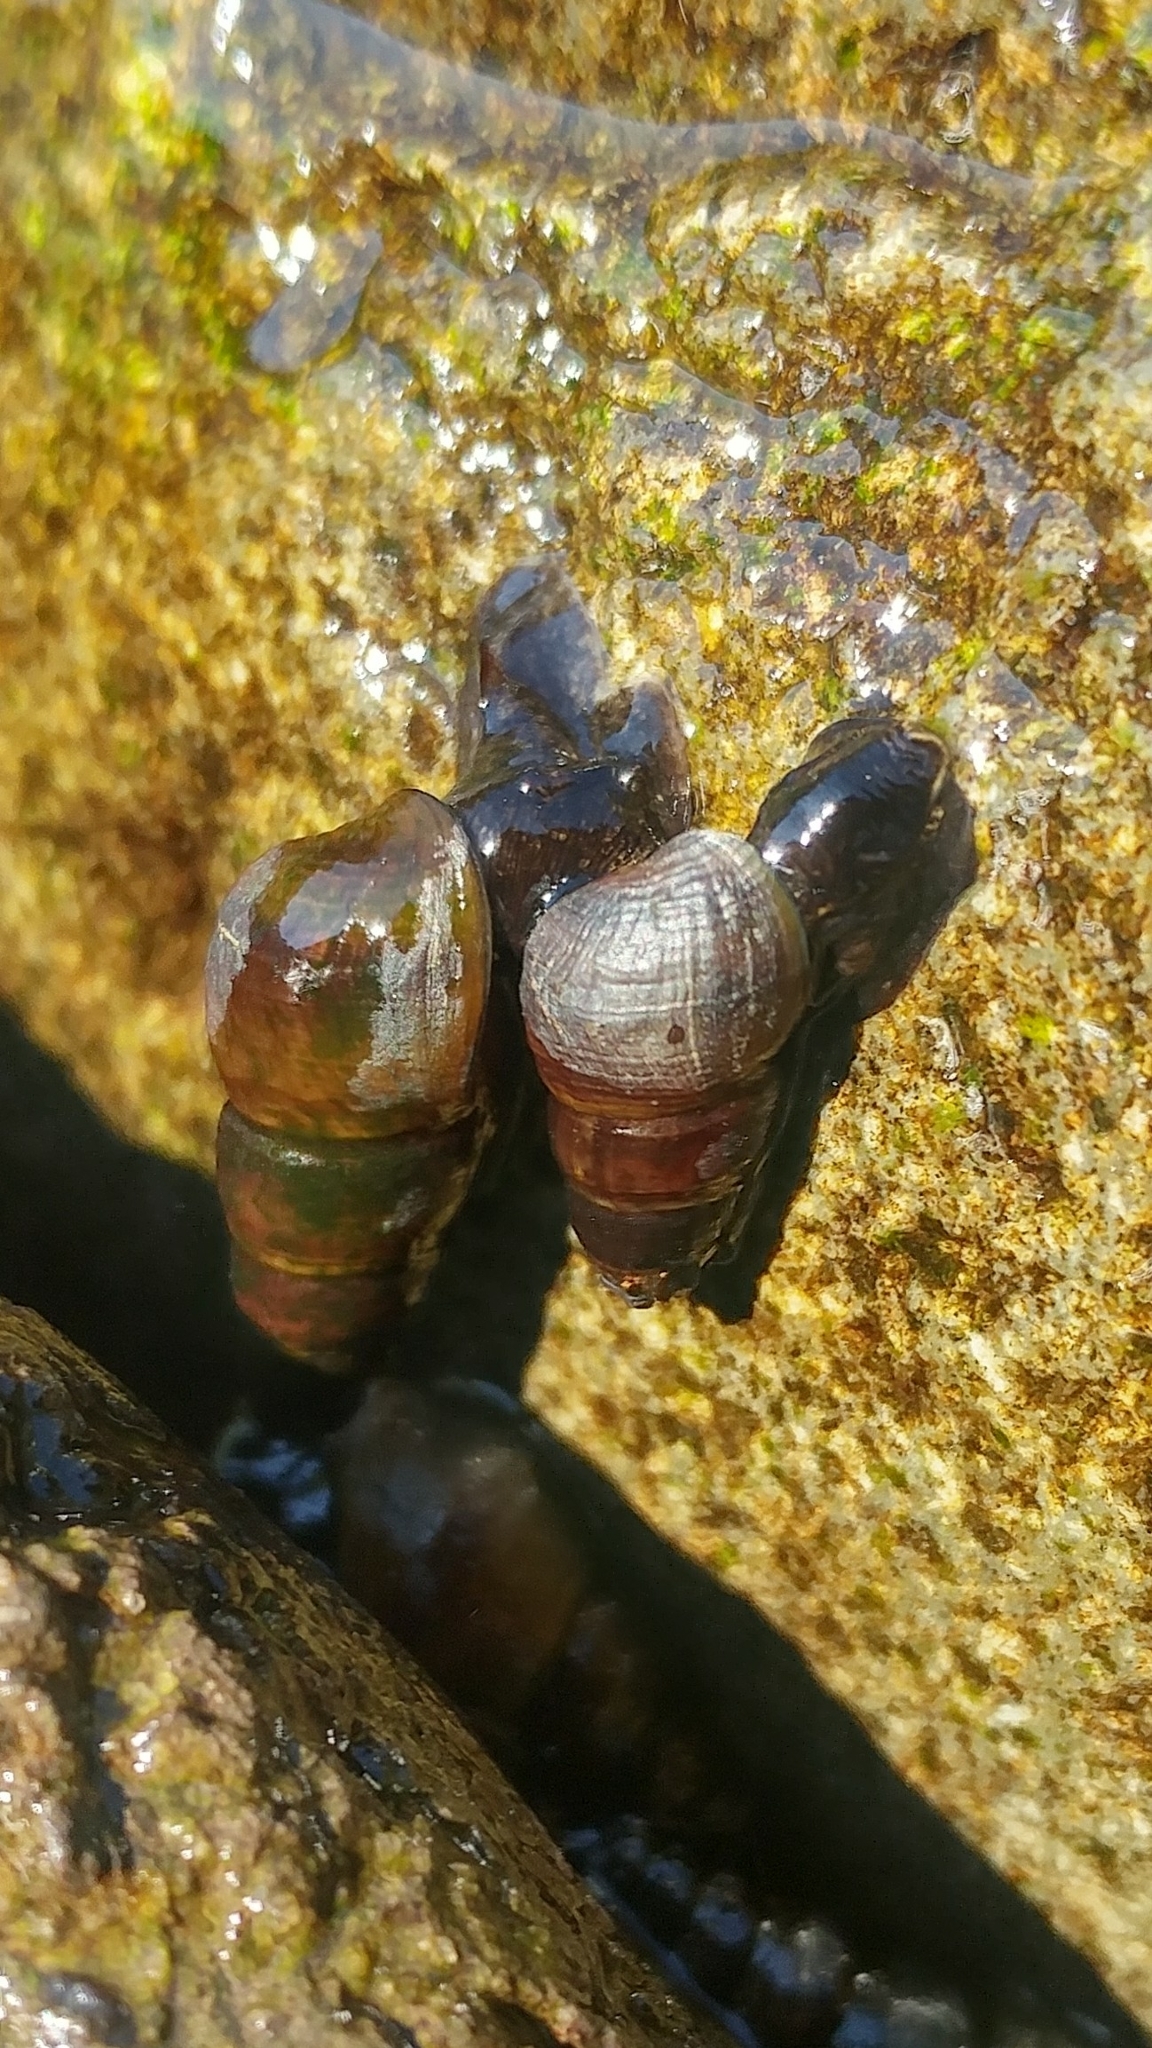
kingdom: Animalia
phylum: Mollusca
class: Gastropoda
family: Semisulcospiridae
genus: Juga
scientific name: Juga plicifera
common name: Pleated juga
